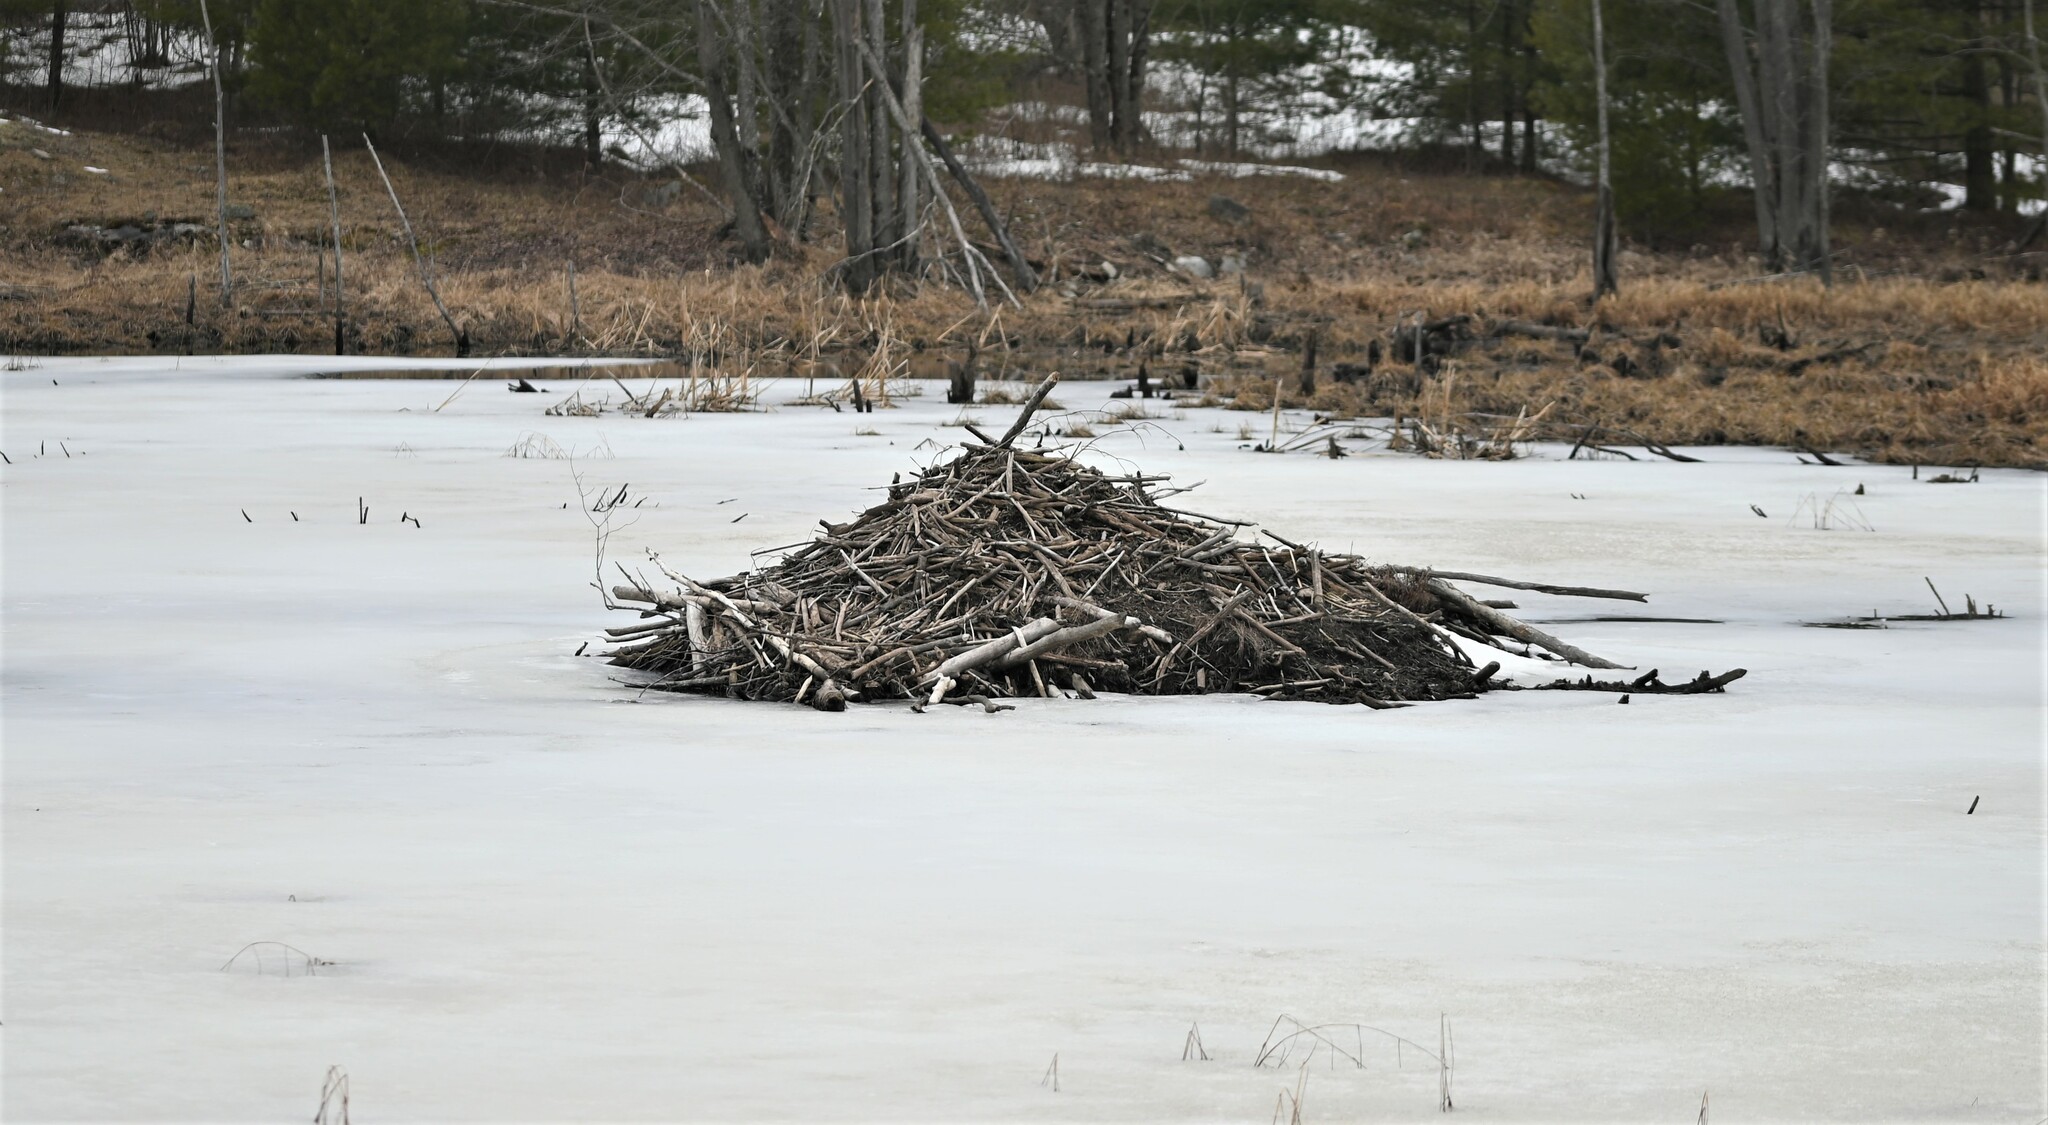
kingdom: Animalia
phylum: Chordata
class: Mammalia
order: Rodentia
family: Castoridae
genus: Castor
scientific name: Castor canadensis
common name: American beaver
